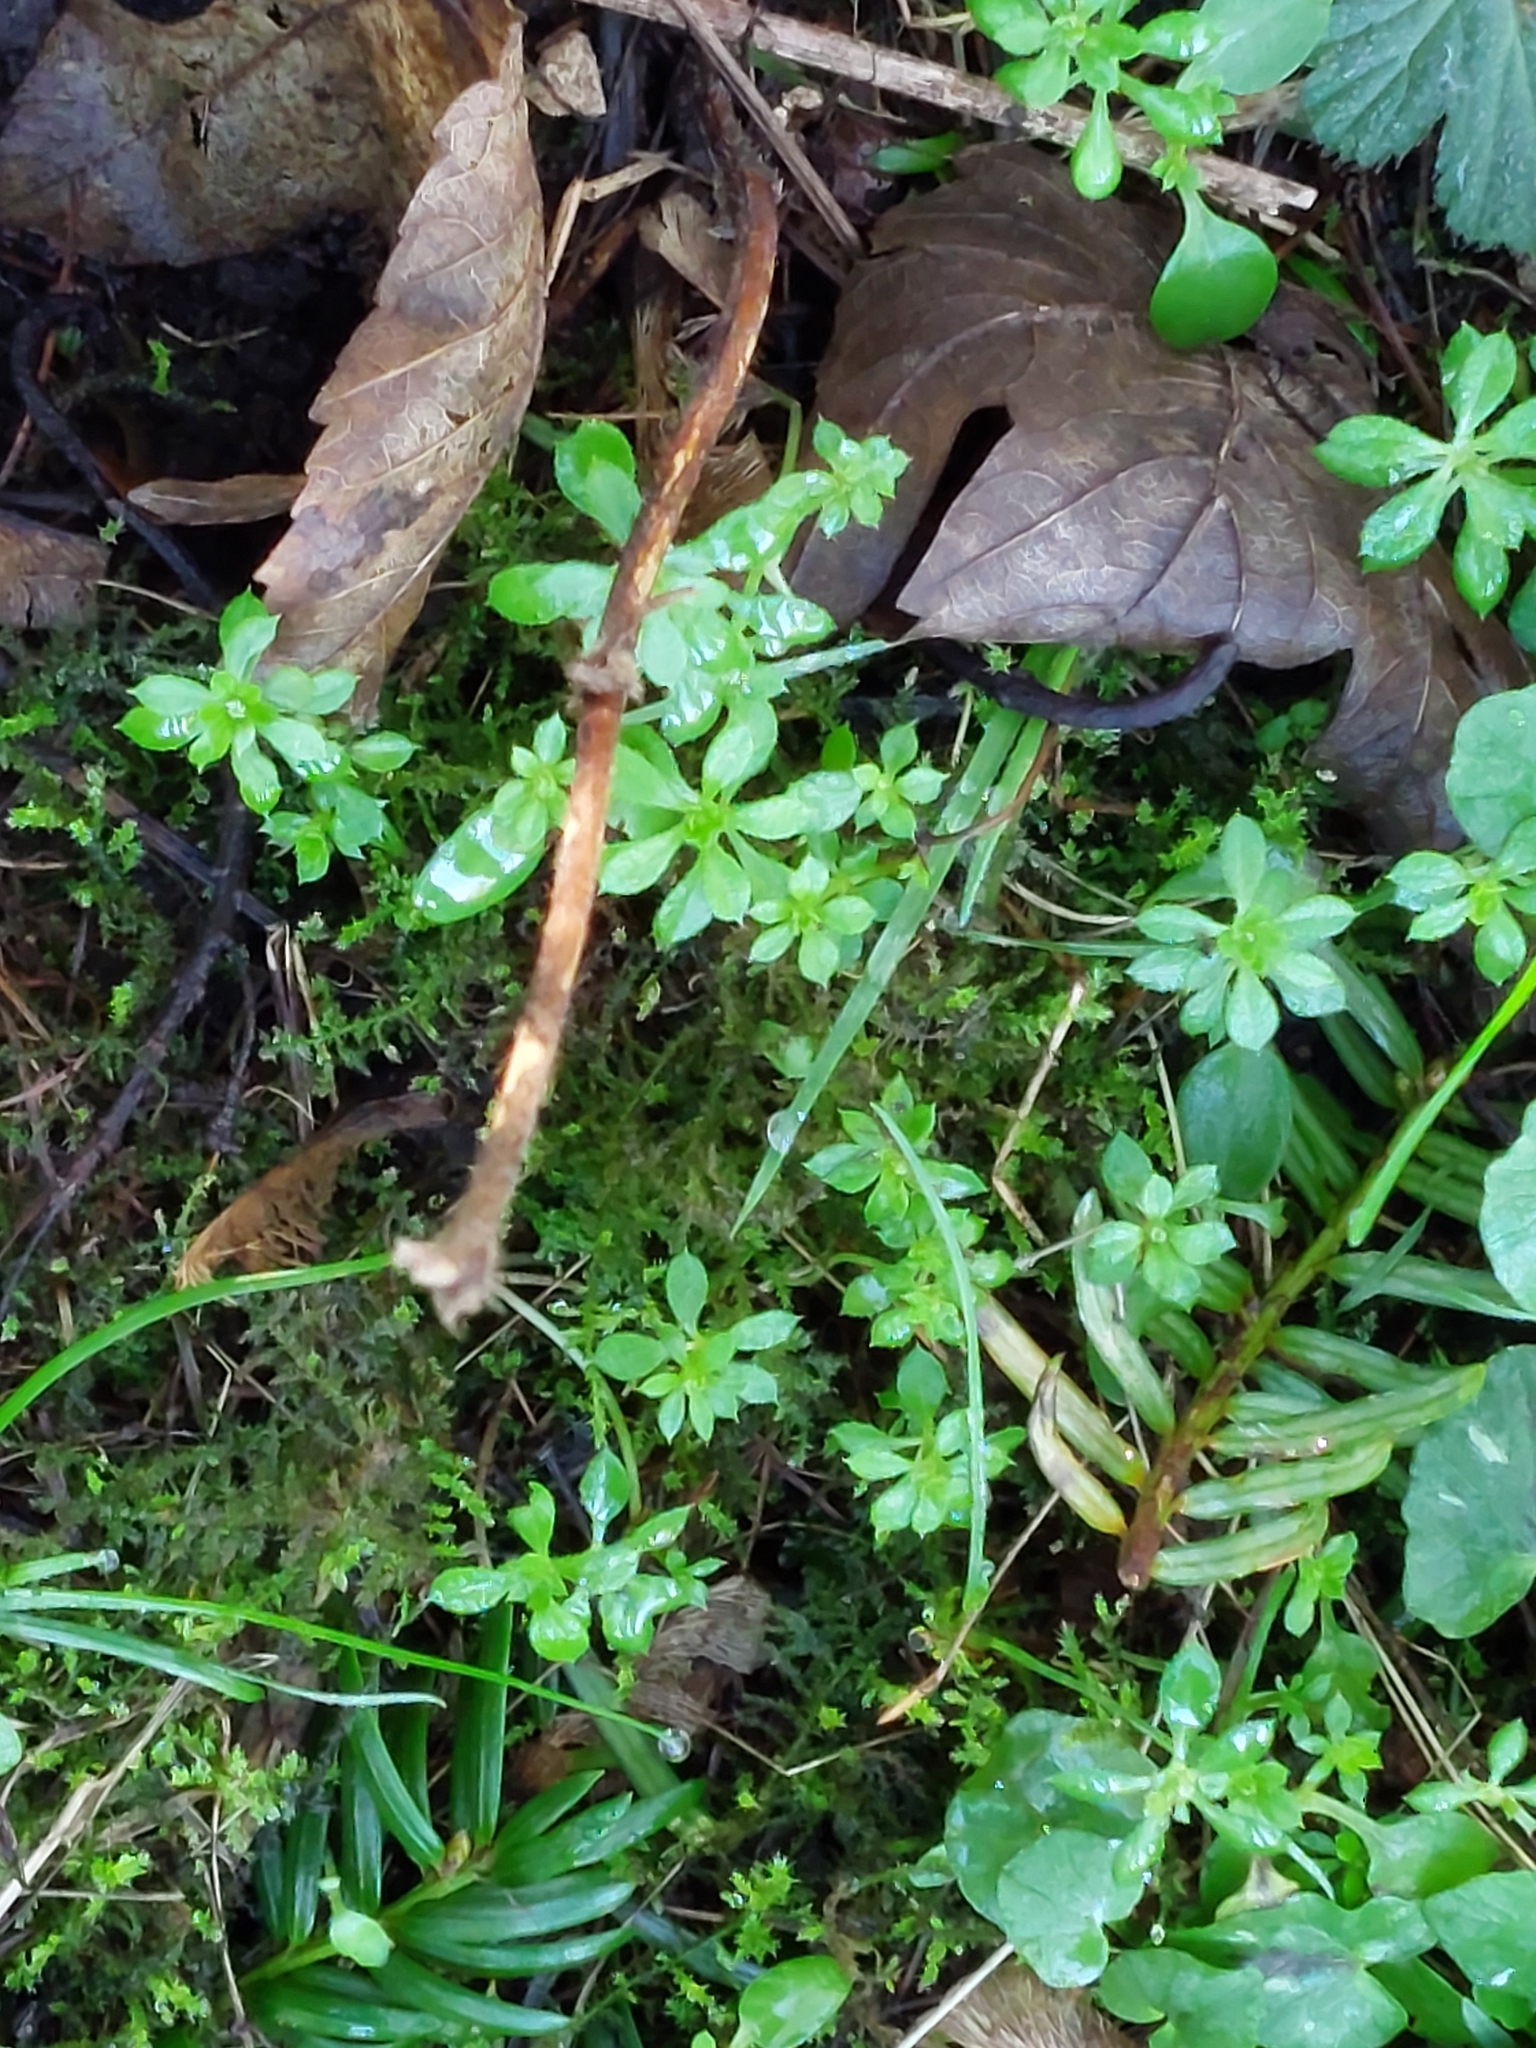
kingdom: Plantae
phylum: Tracheophyta
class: Magnoliopsida
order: Gentianales
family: Rubiaceae
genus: Galium
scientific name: Galium aparine
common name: Cleavers
